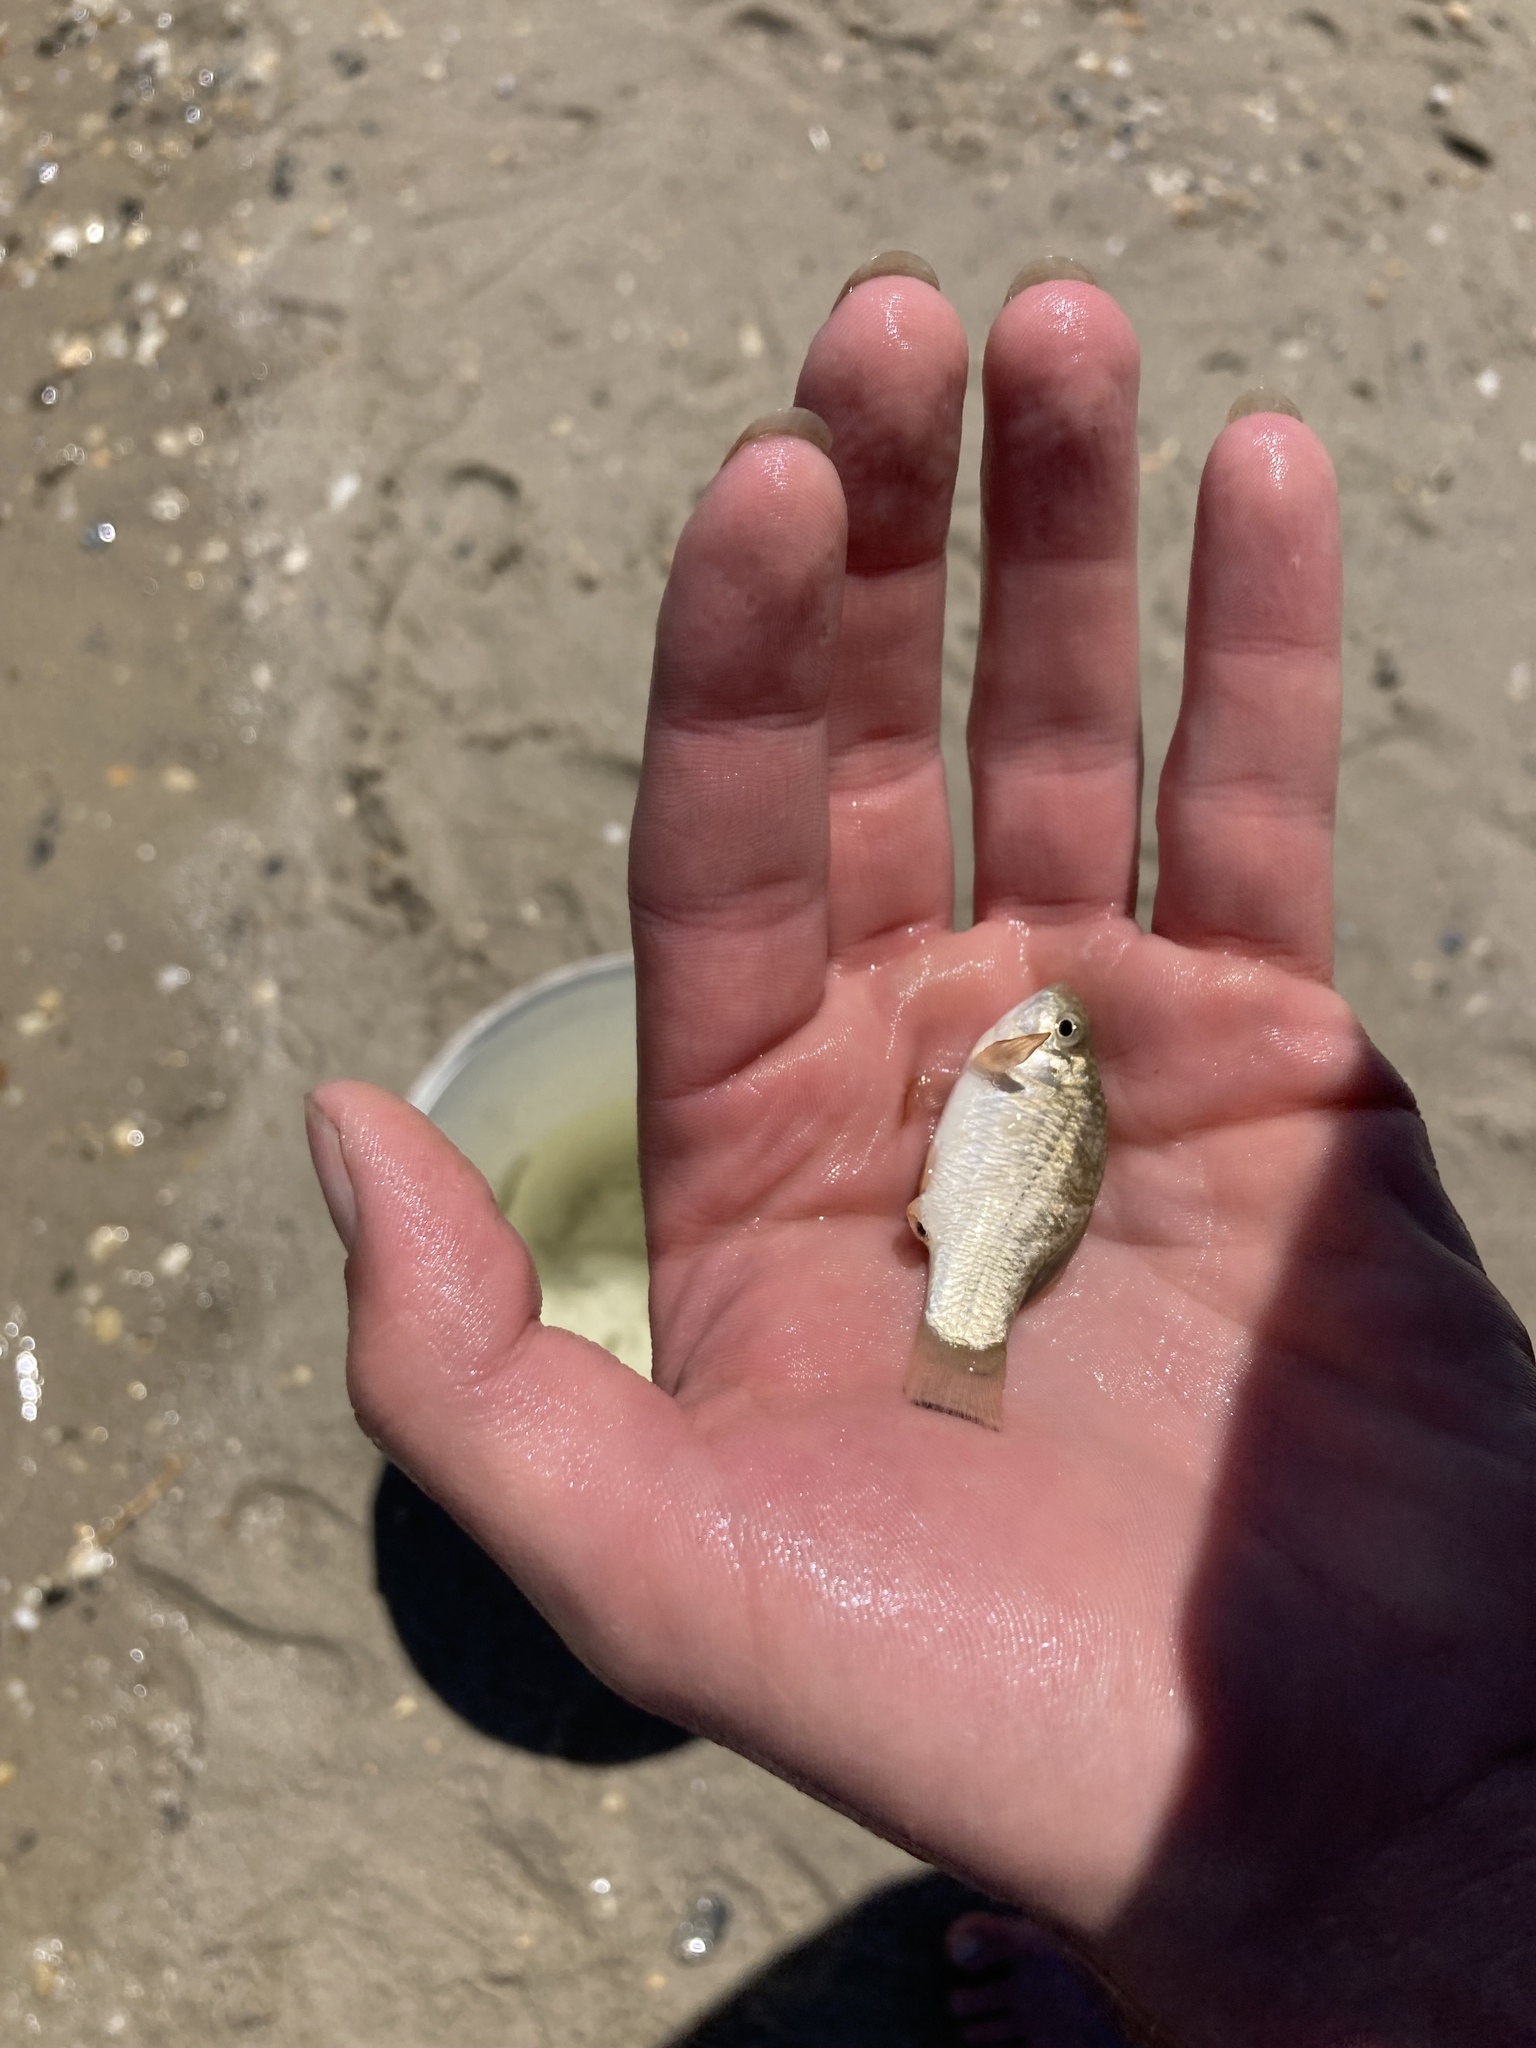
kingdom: Animalia
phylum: Chordata
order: Cyprinodontiformes
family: Cyprinodontidae
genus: Cyprinodon
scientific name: Cyprinodon variegatus
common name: Sheepshead minnow
